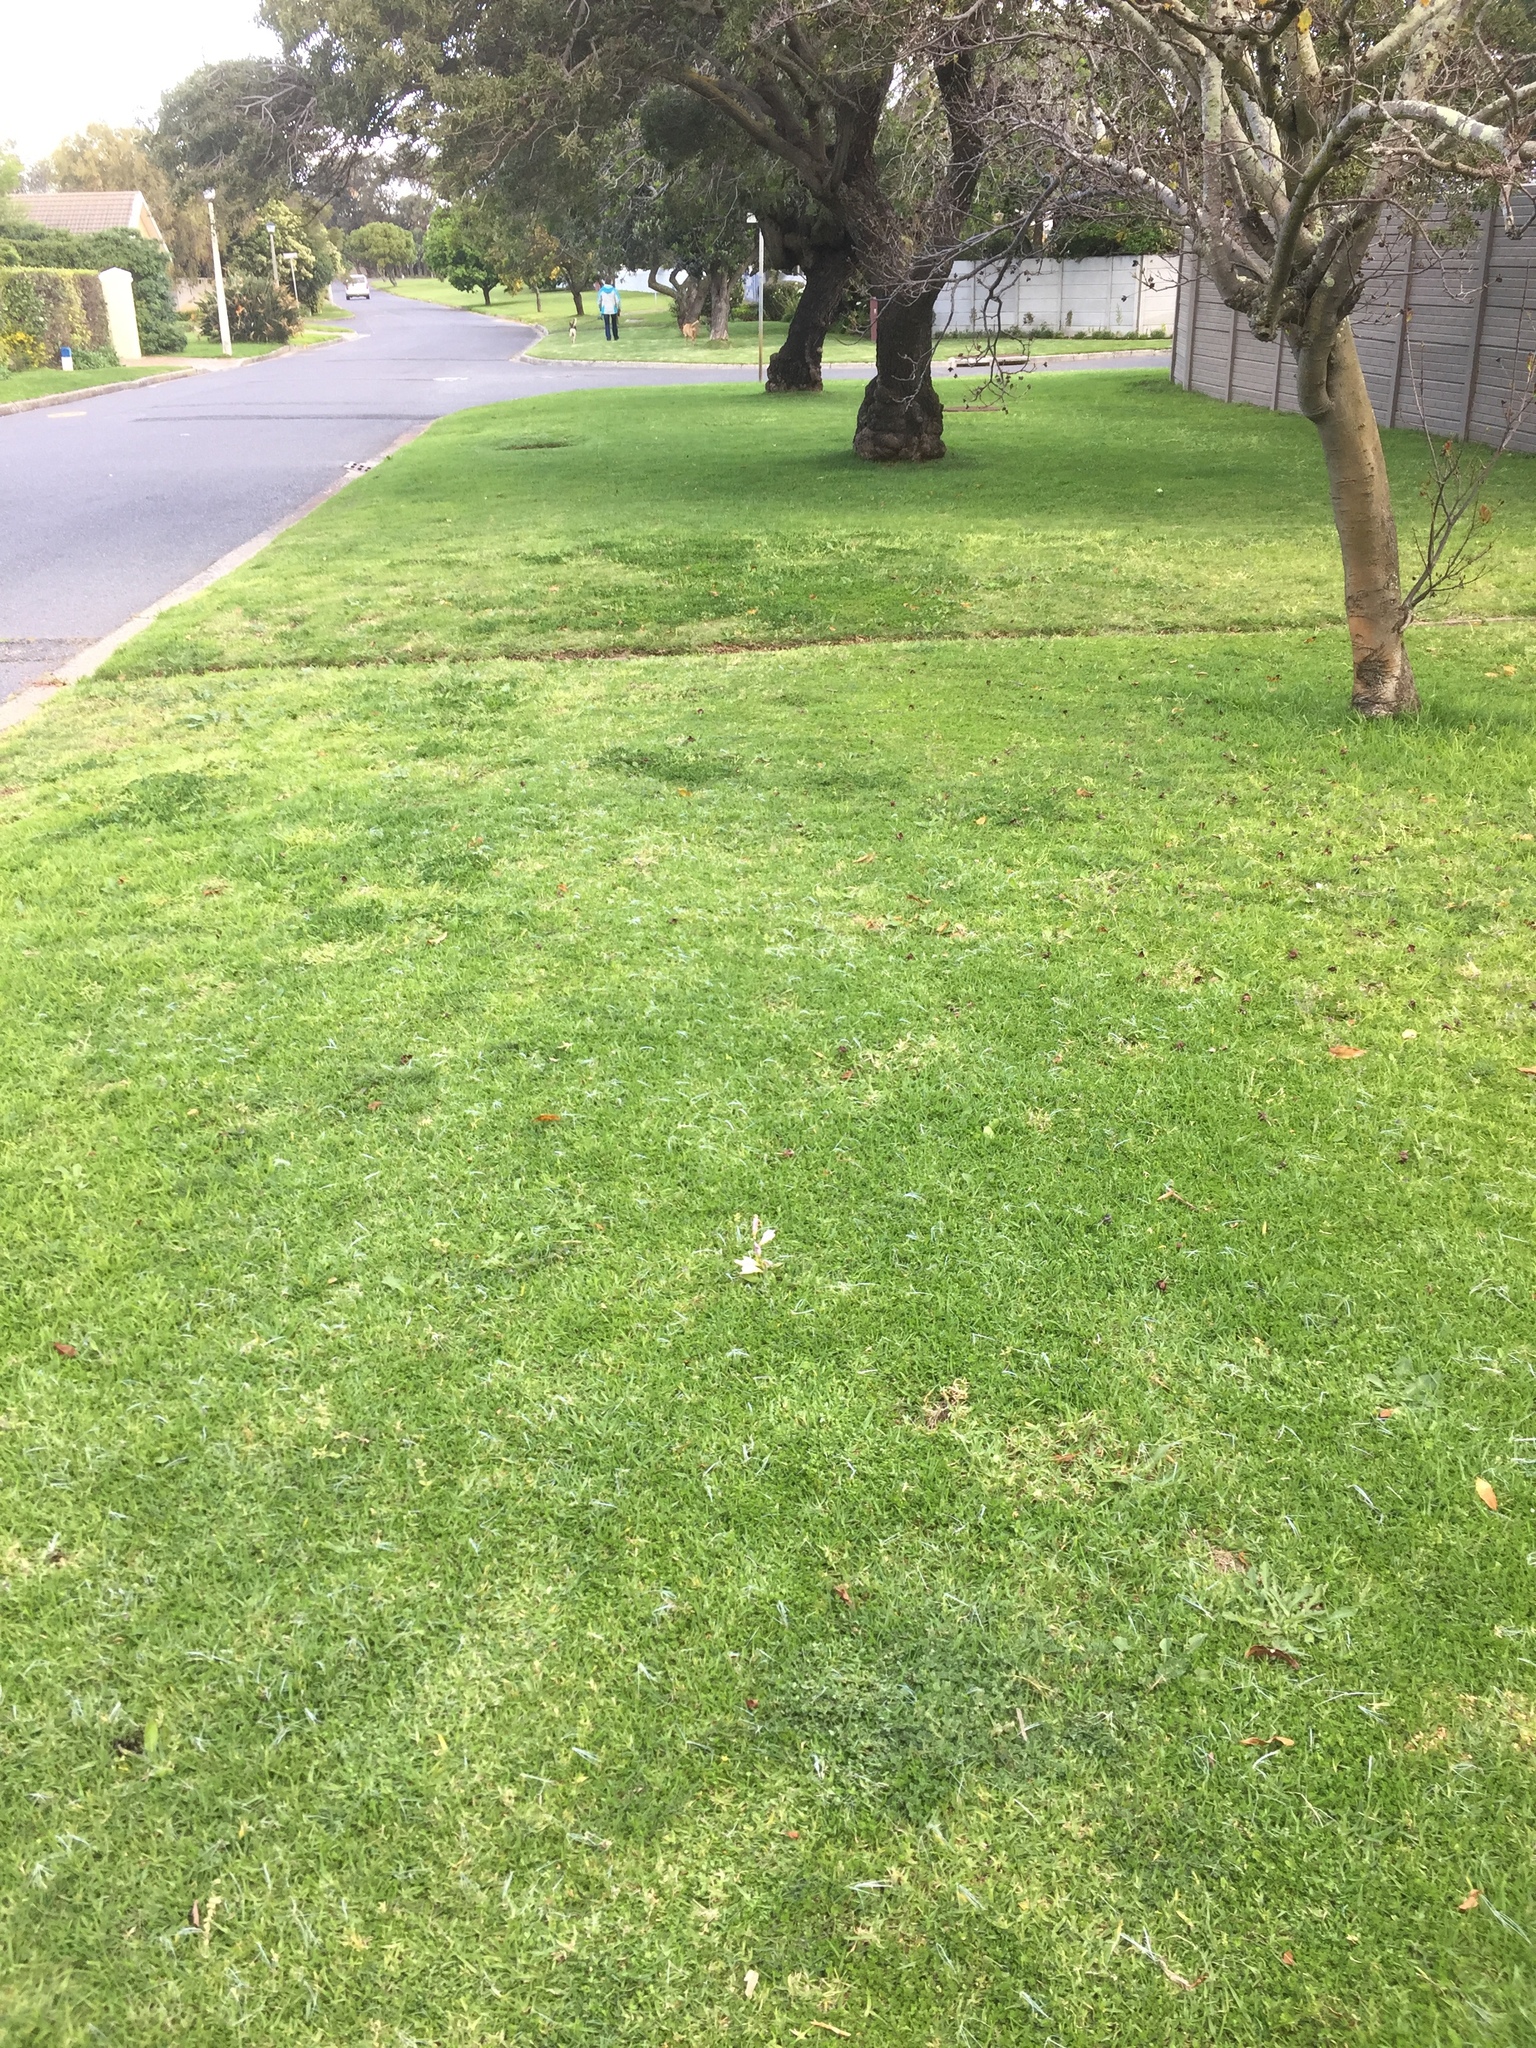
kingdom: Plantae
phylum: Tracheophyta
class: Liliopsida
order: Asparagales
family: Iridaceae
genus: Sparaxis
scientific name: Sparaxis bulbifera
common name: Harlequin-flower
